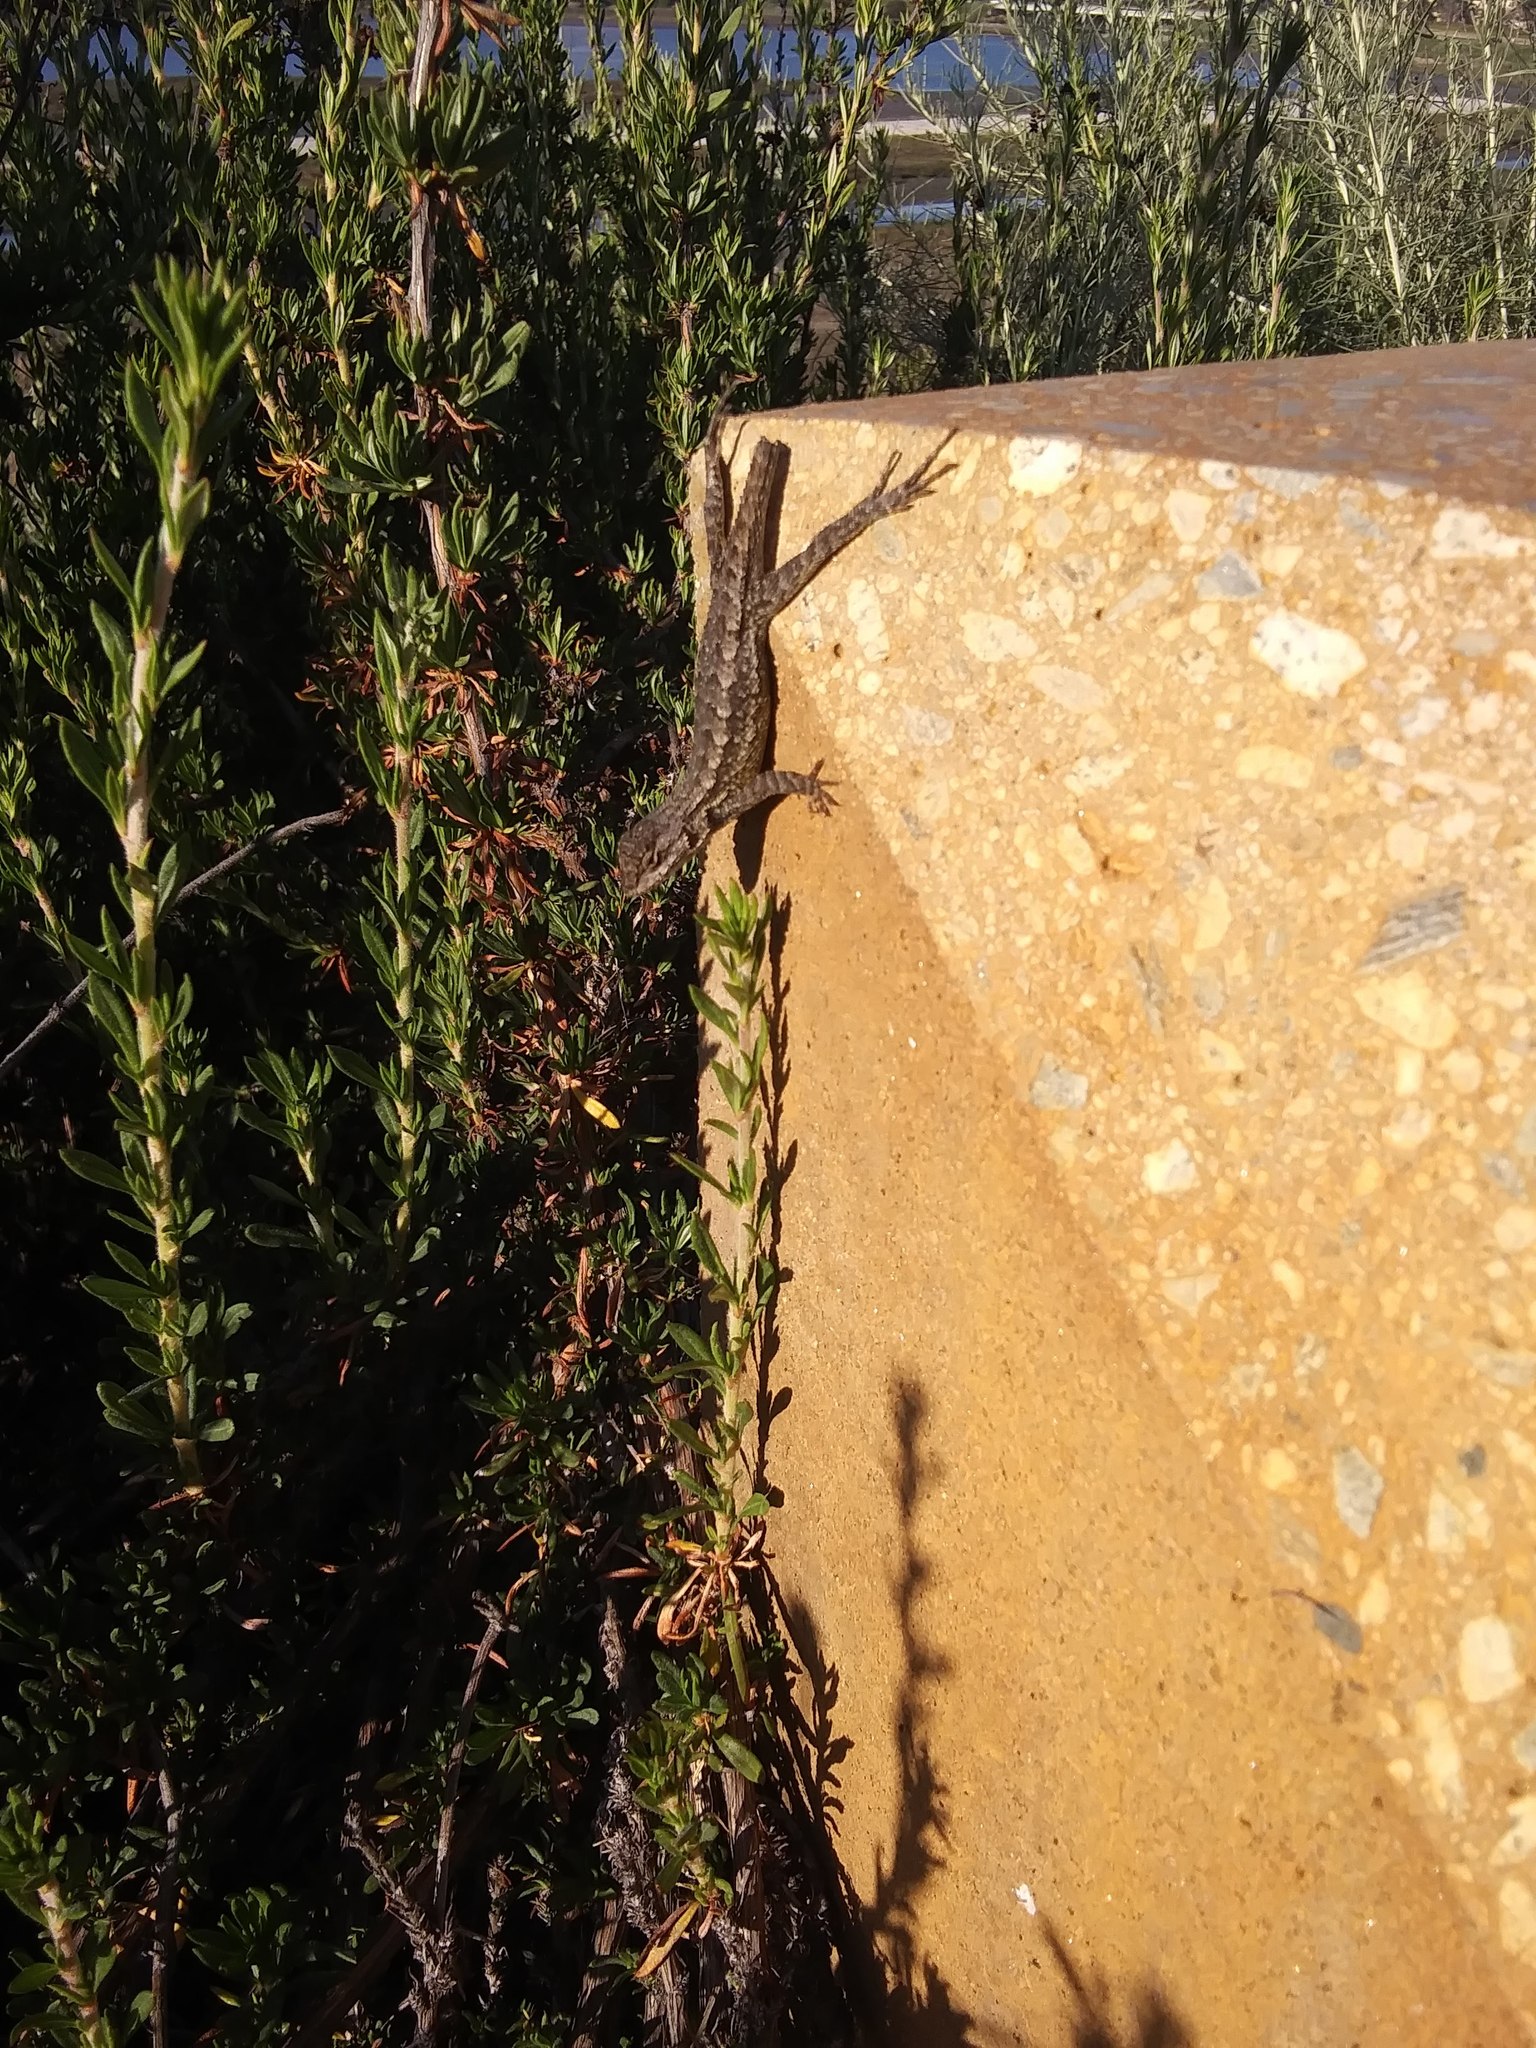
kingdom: Animalia
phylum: Chordata
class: Squamata
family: Phrynosomatidae
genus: Sceloporus
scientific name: Sceloporus occidentalis
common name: Western fence lizard
